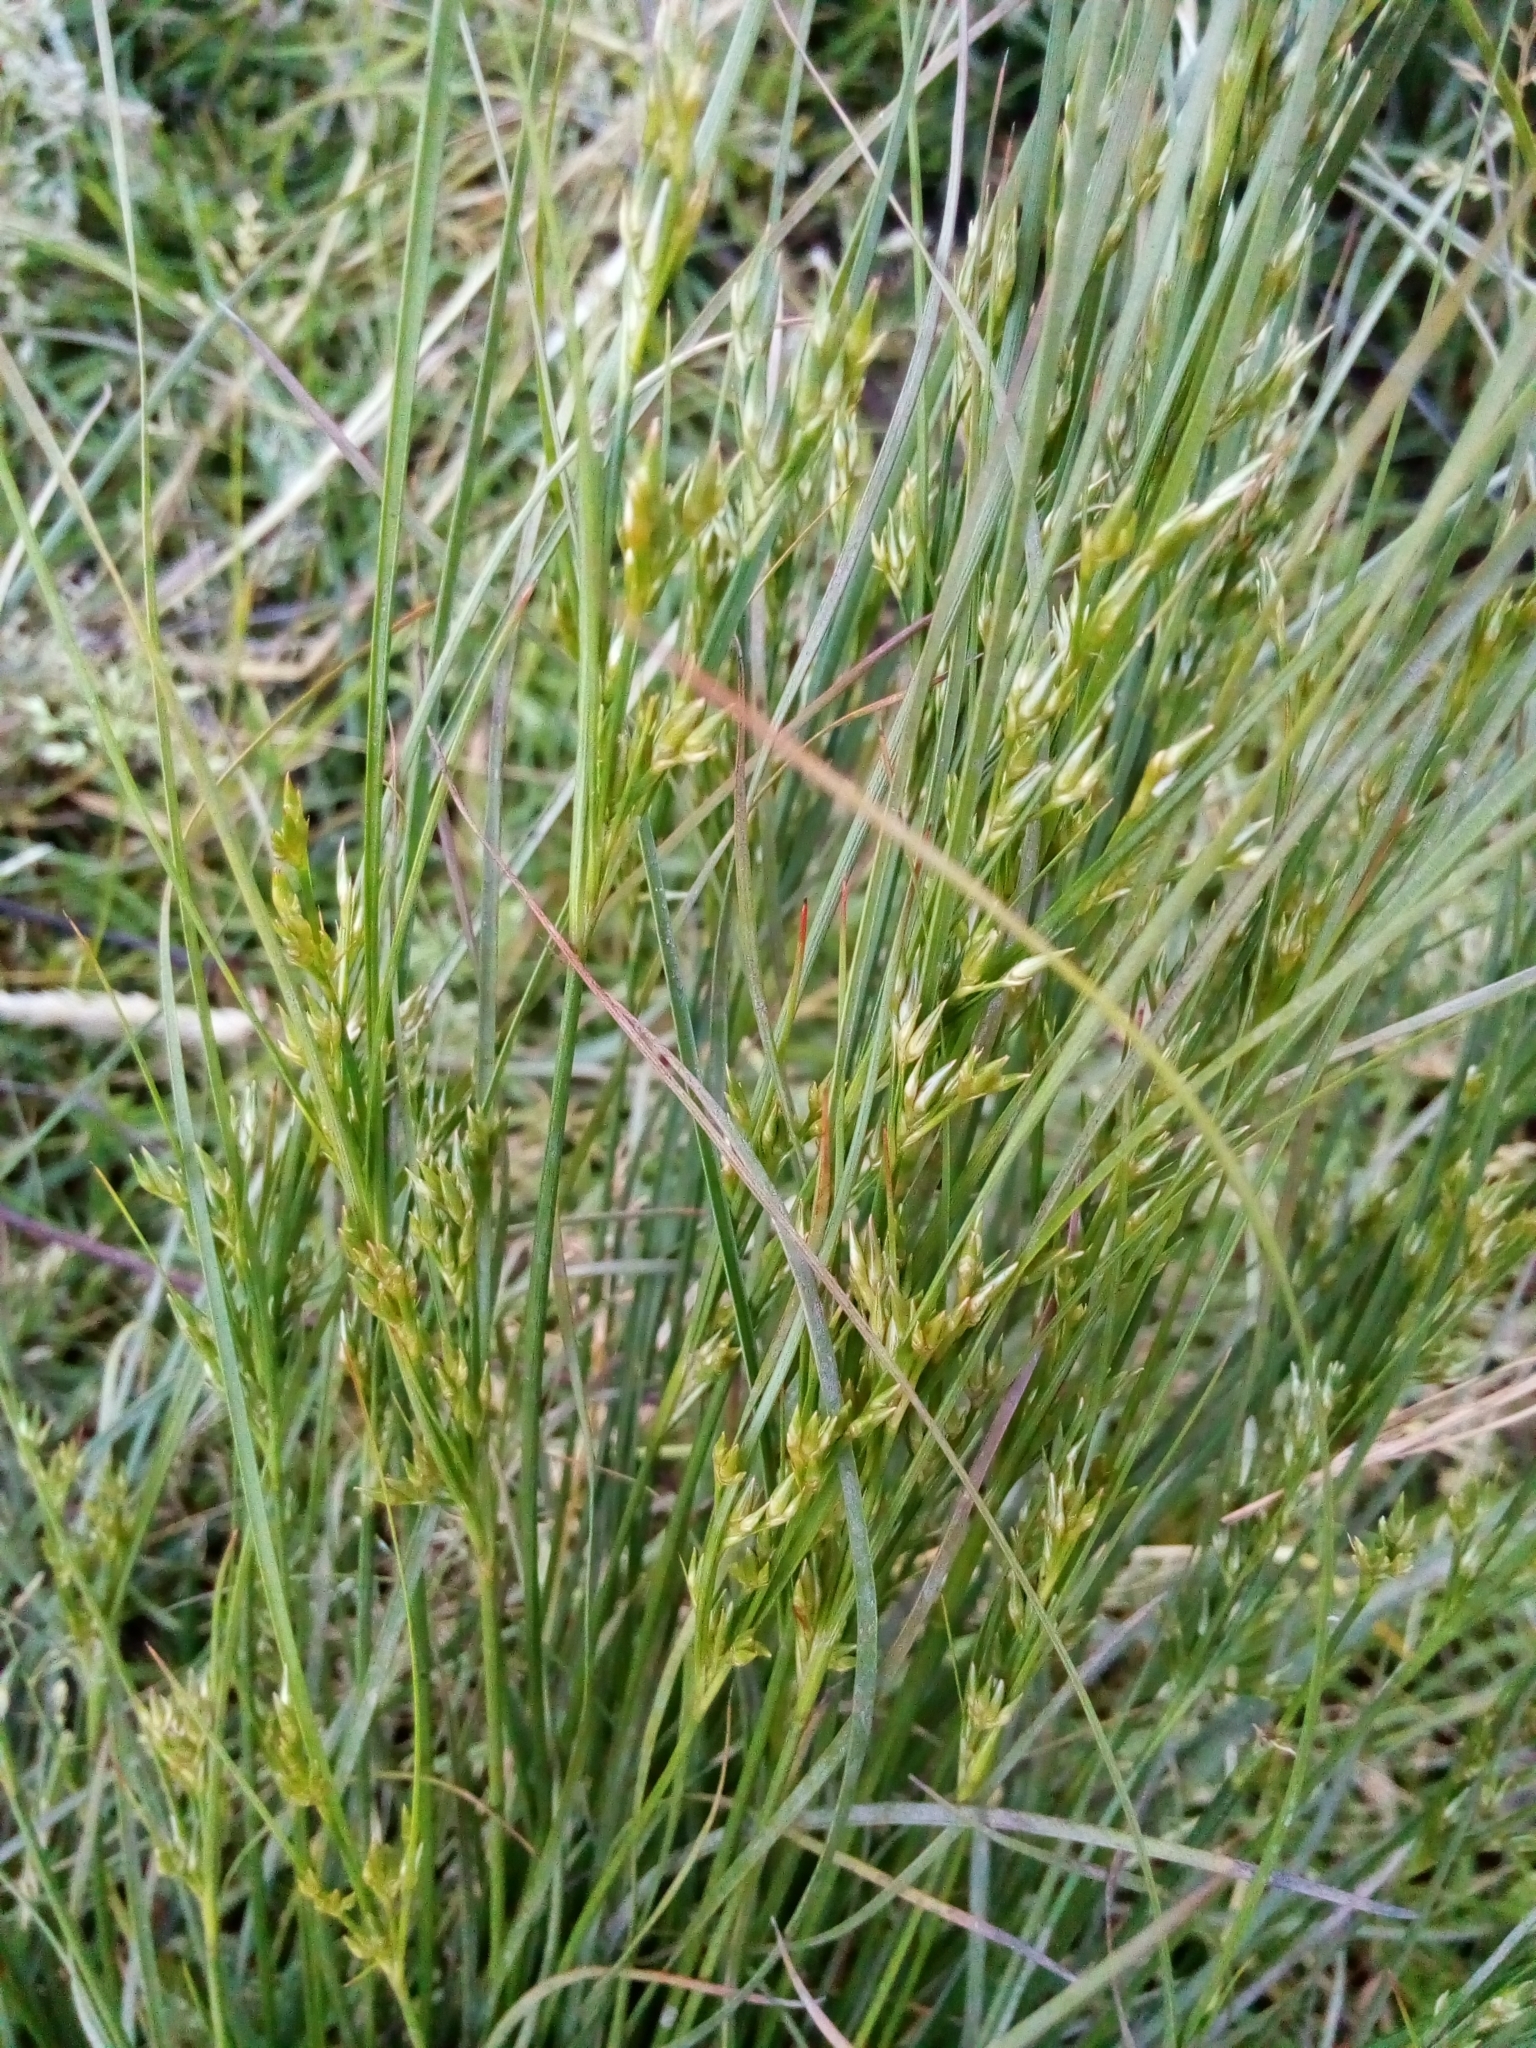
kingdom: Plantae
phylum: Tracheophyta
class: Liliopsida
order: Poales
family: Juncaceae
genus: Juncus
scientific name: Juncus tenuis
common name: Slender rush
